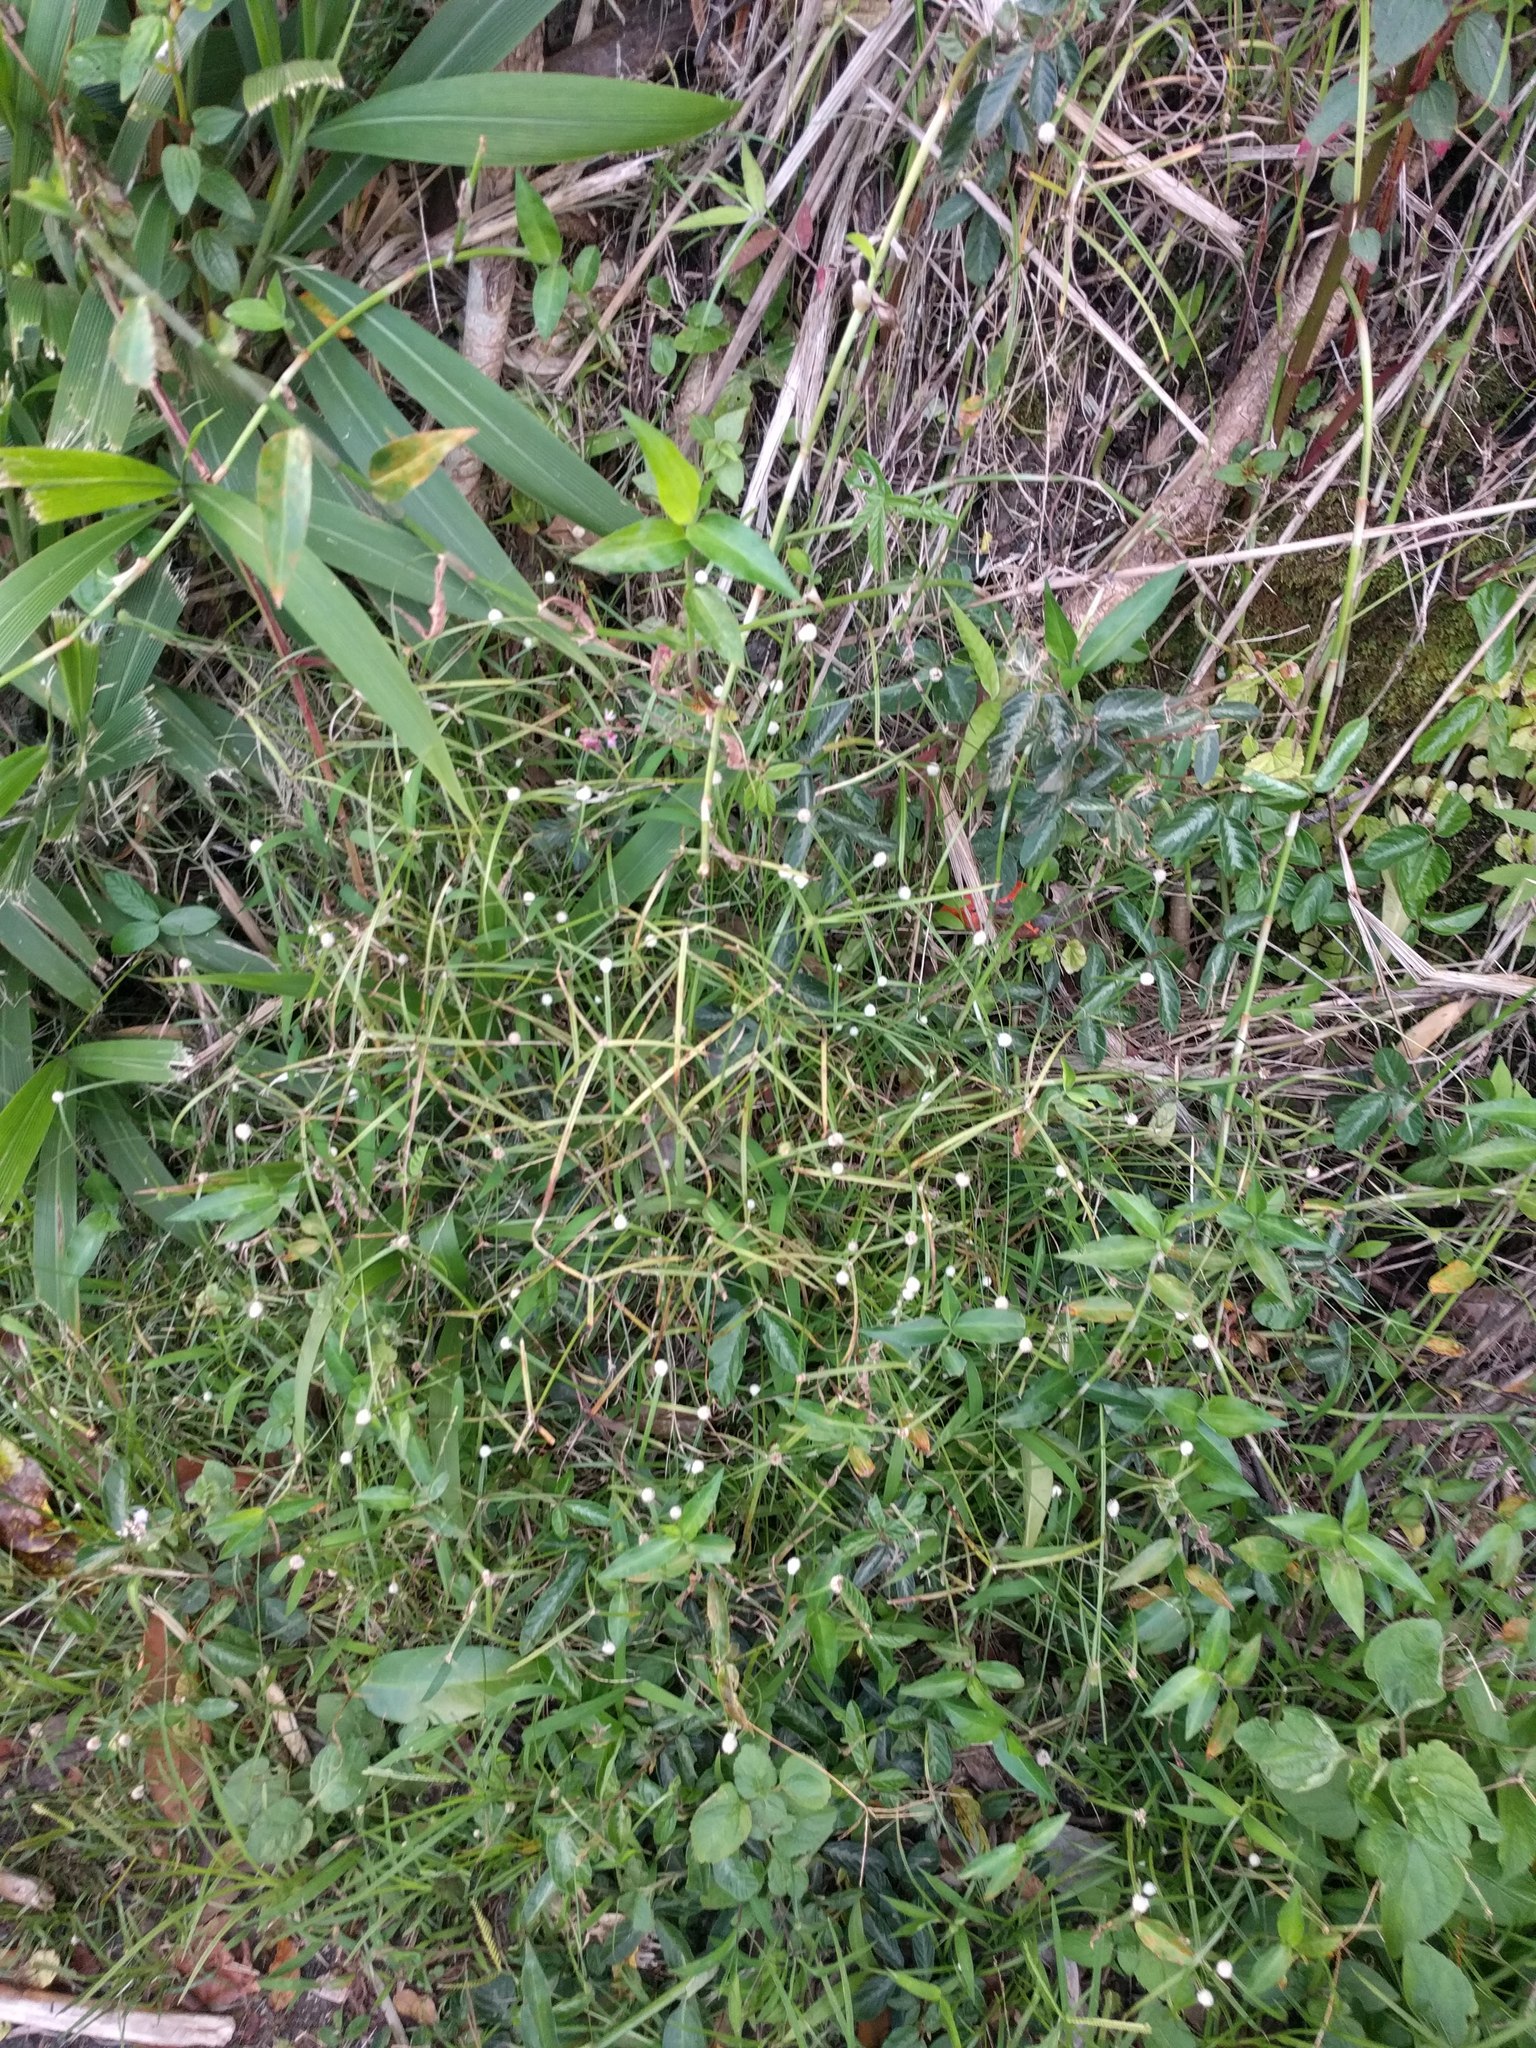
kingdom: Plantae
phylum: Tracheophyta
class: Liliopsida
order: Poales
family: Cyperaceae
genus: Cyperus
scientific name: Cyperus mindorensis
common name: Flatsedge
